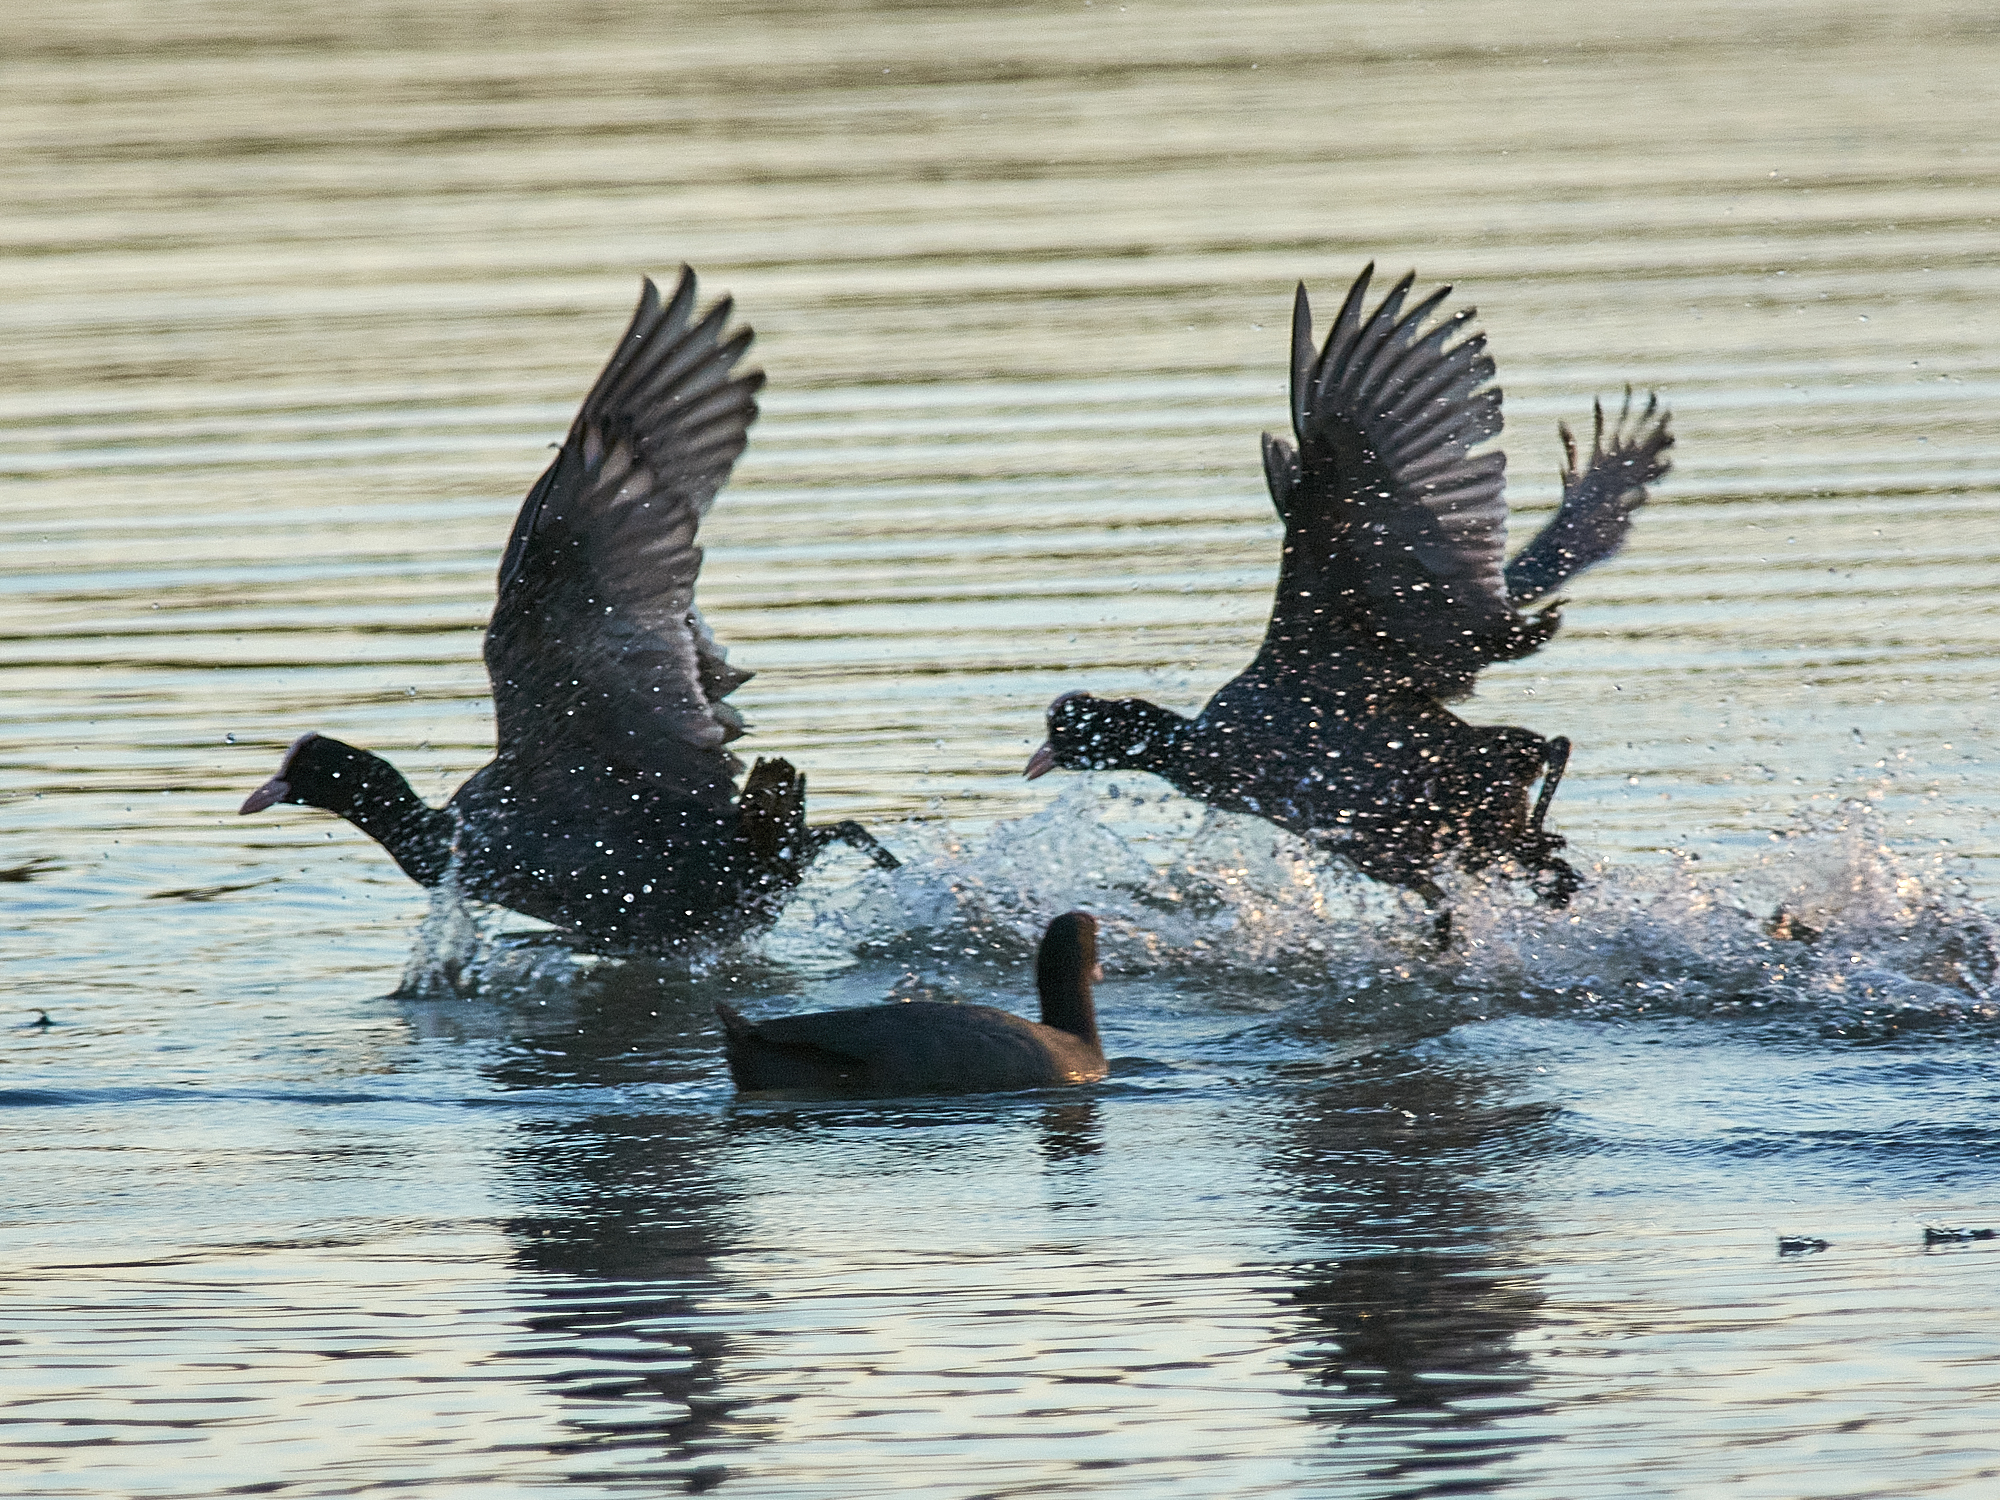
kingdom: Animalia
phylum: Chordata
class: Aves
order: Gruiformes
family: Rallidae
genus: Fulica
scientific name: Fulica atra
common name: Eurasian coot
